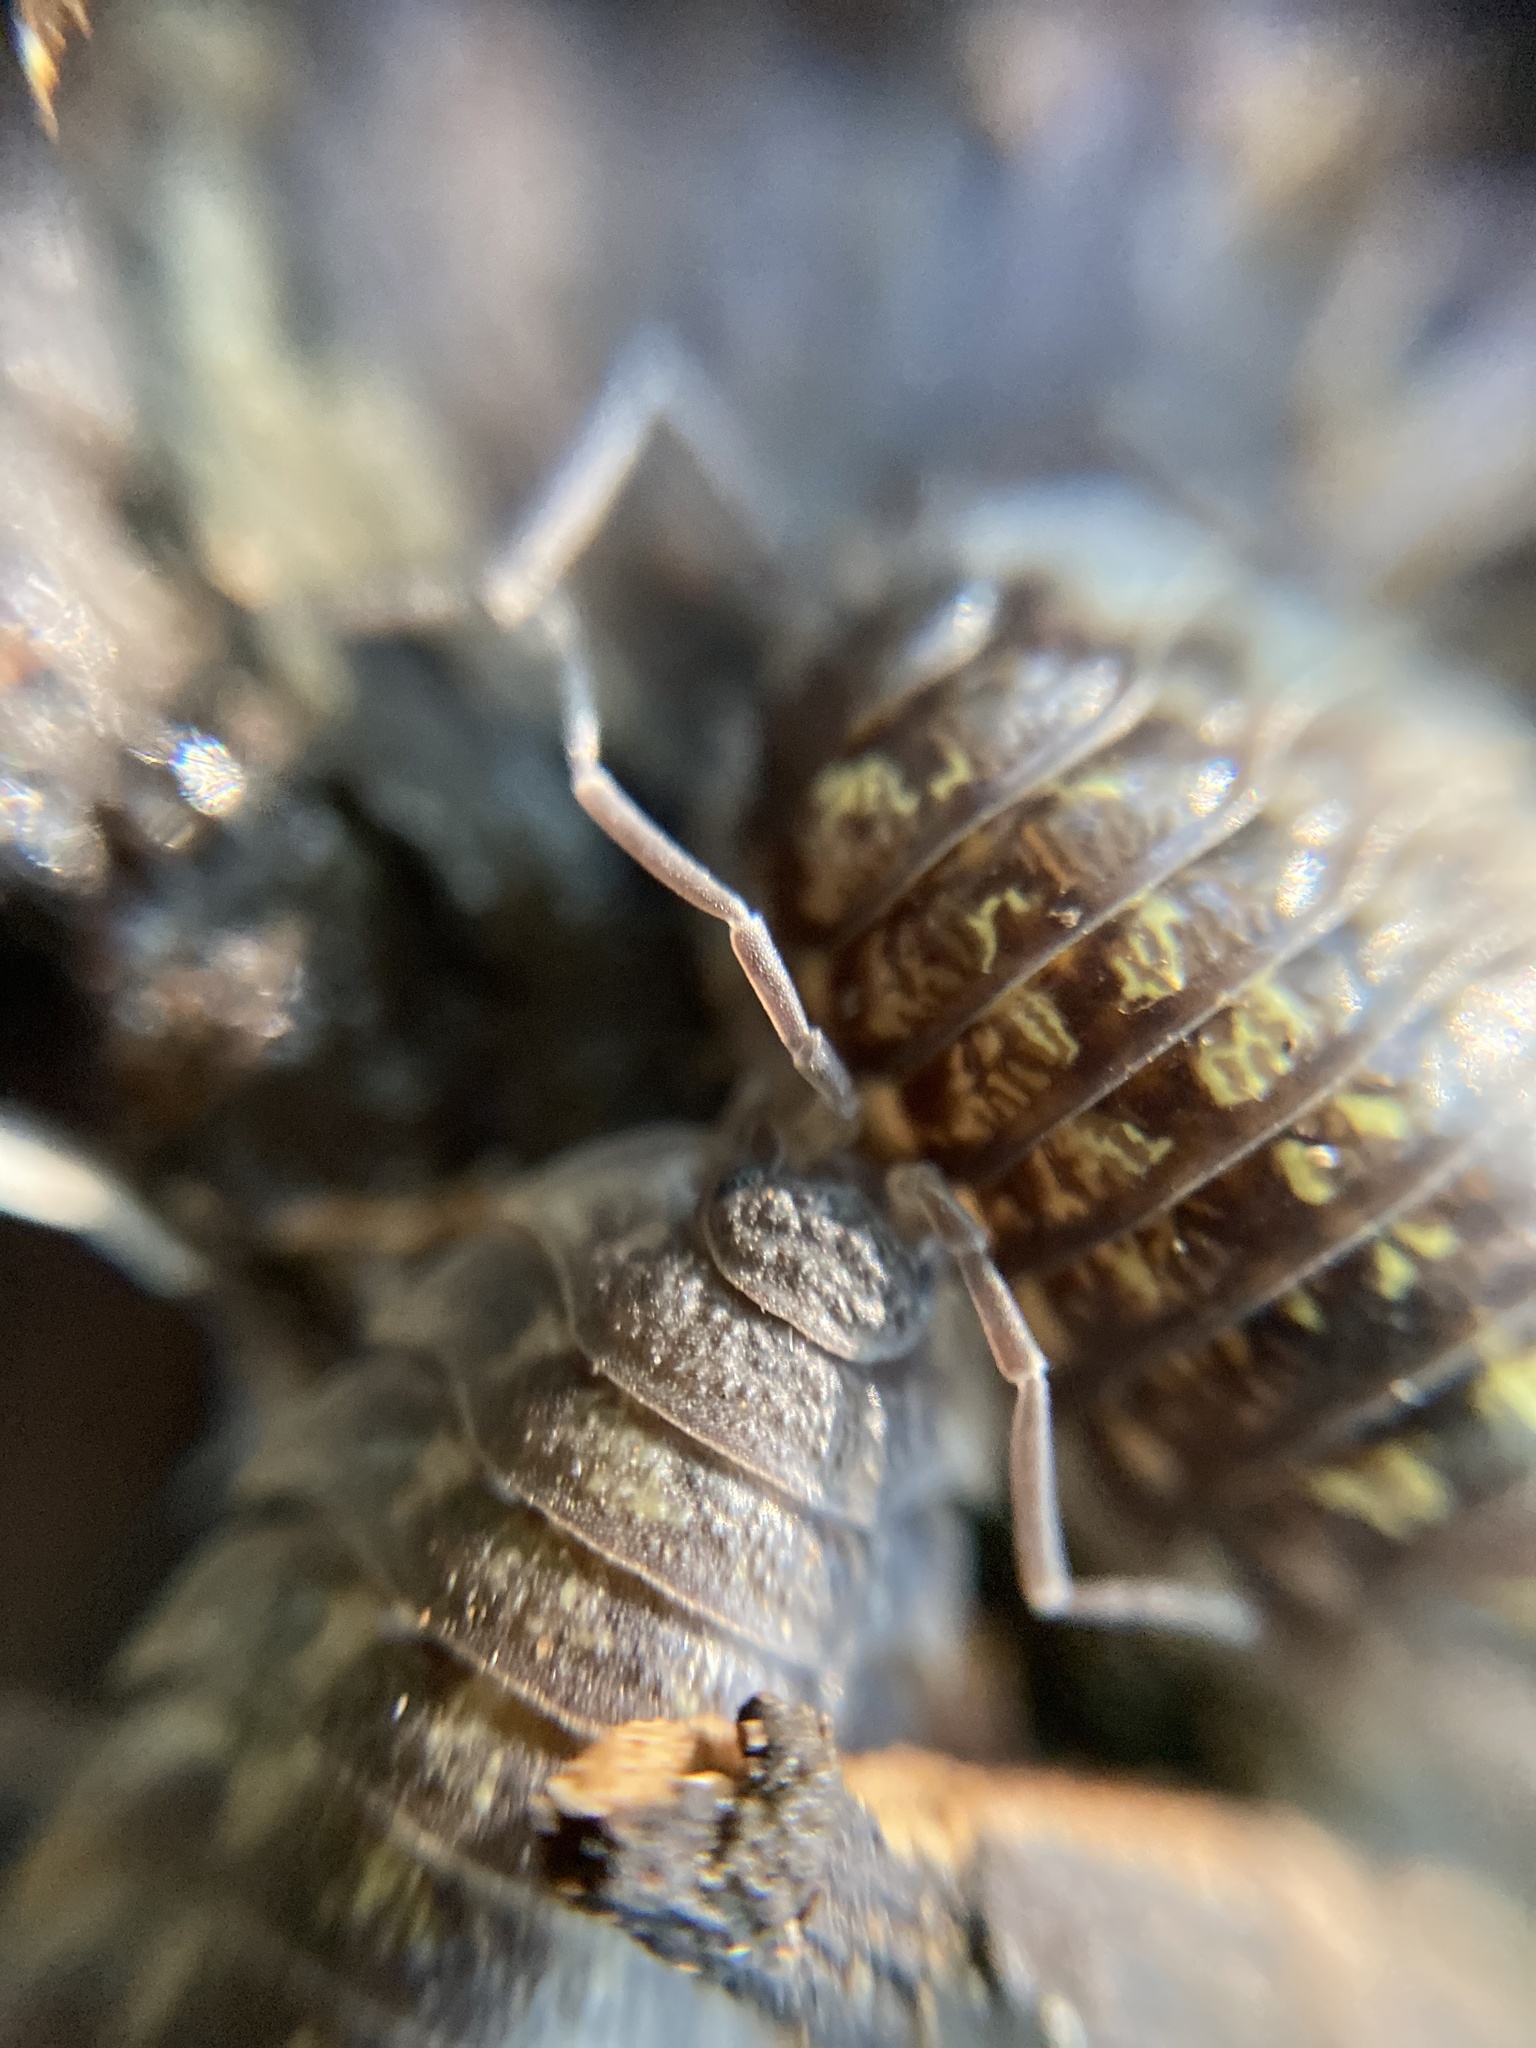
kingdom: Animalia
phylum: Arthropoda
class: Malacostraca
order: Isopoda
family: Oniscidae
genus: Oniscus
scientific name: Oniscus asellus
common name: Common shiny woodlouse
